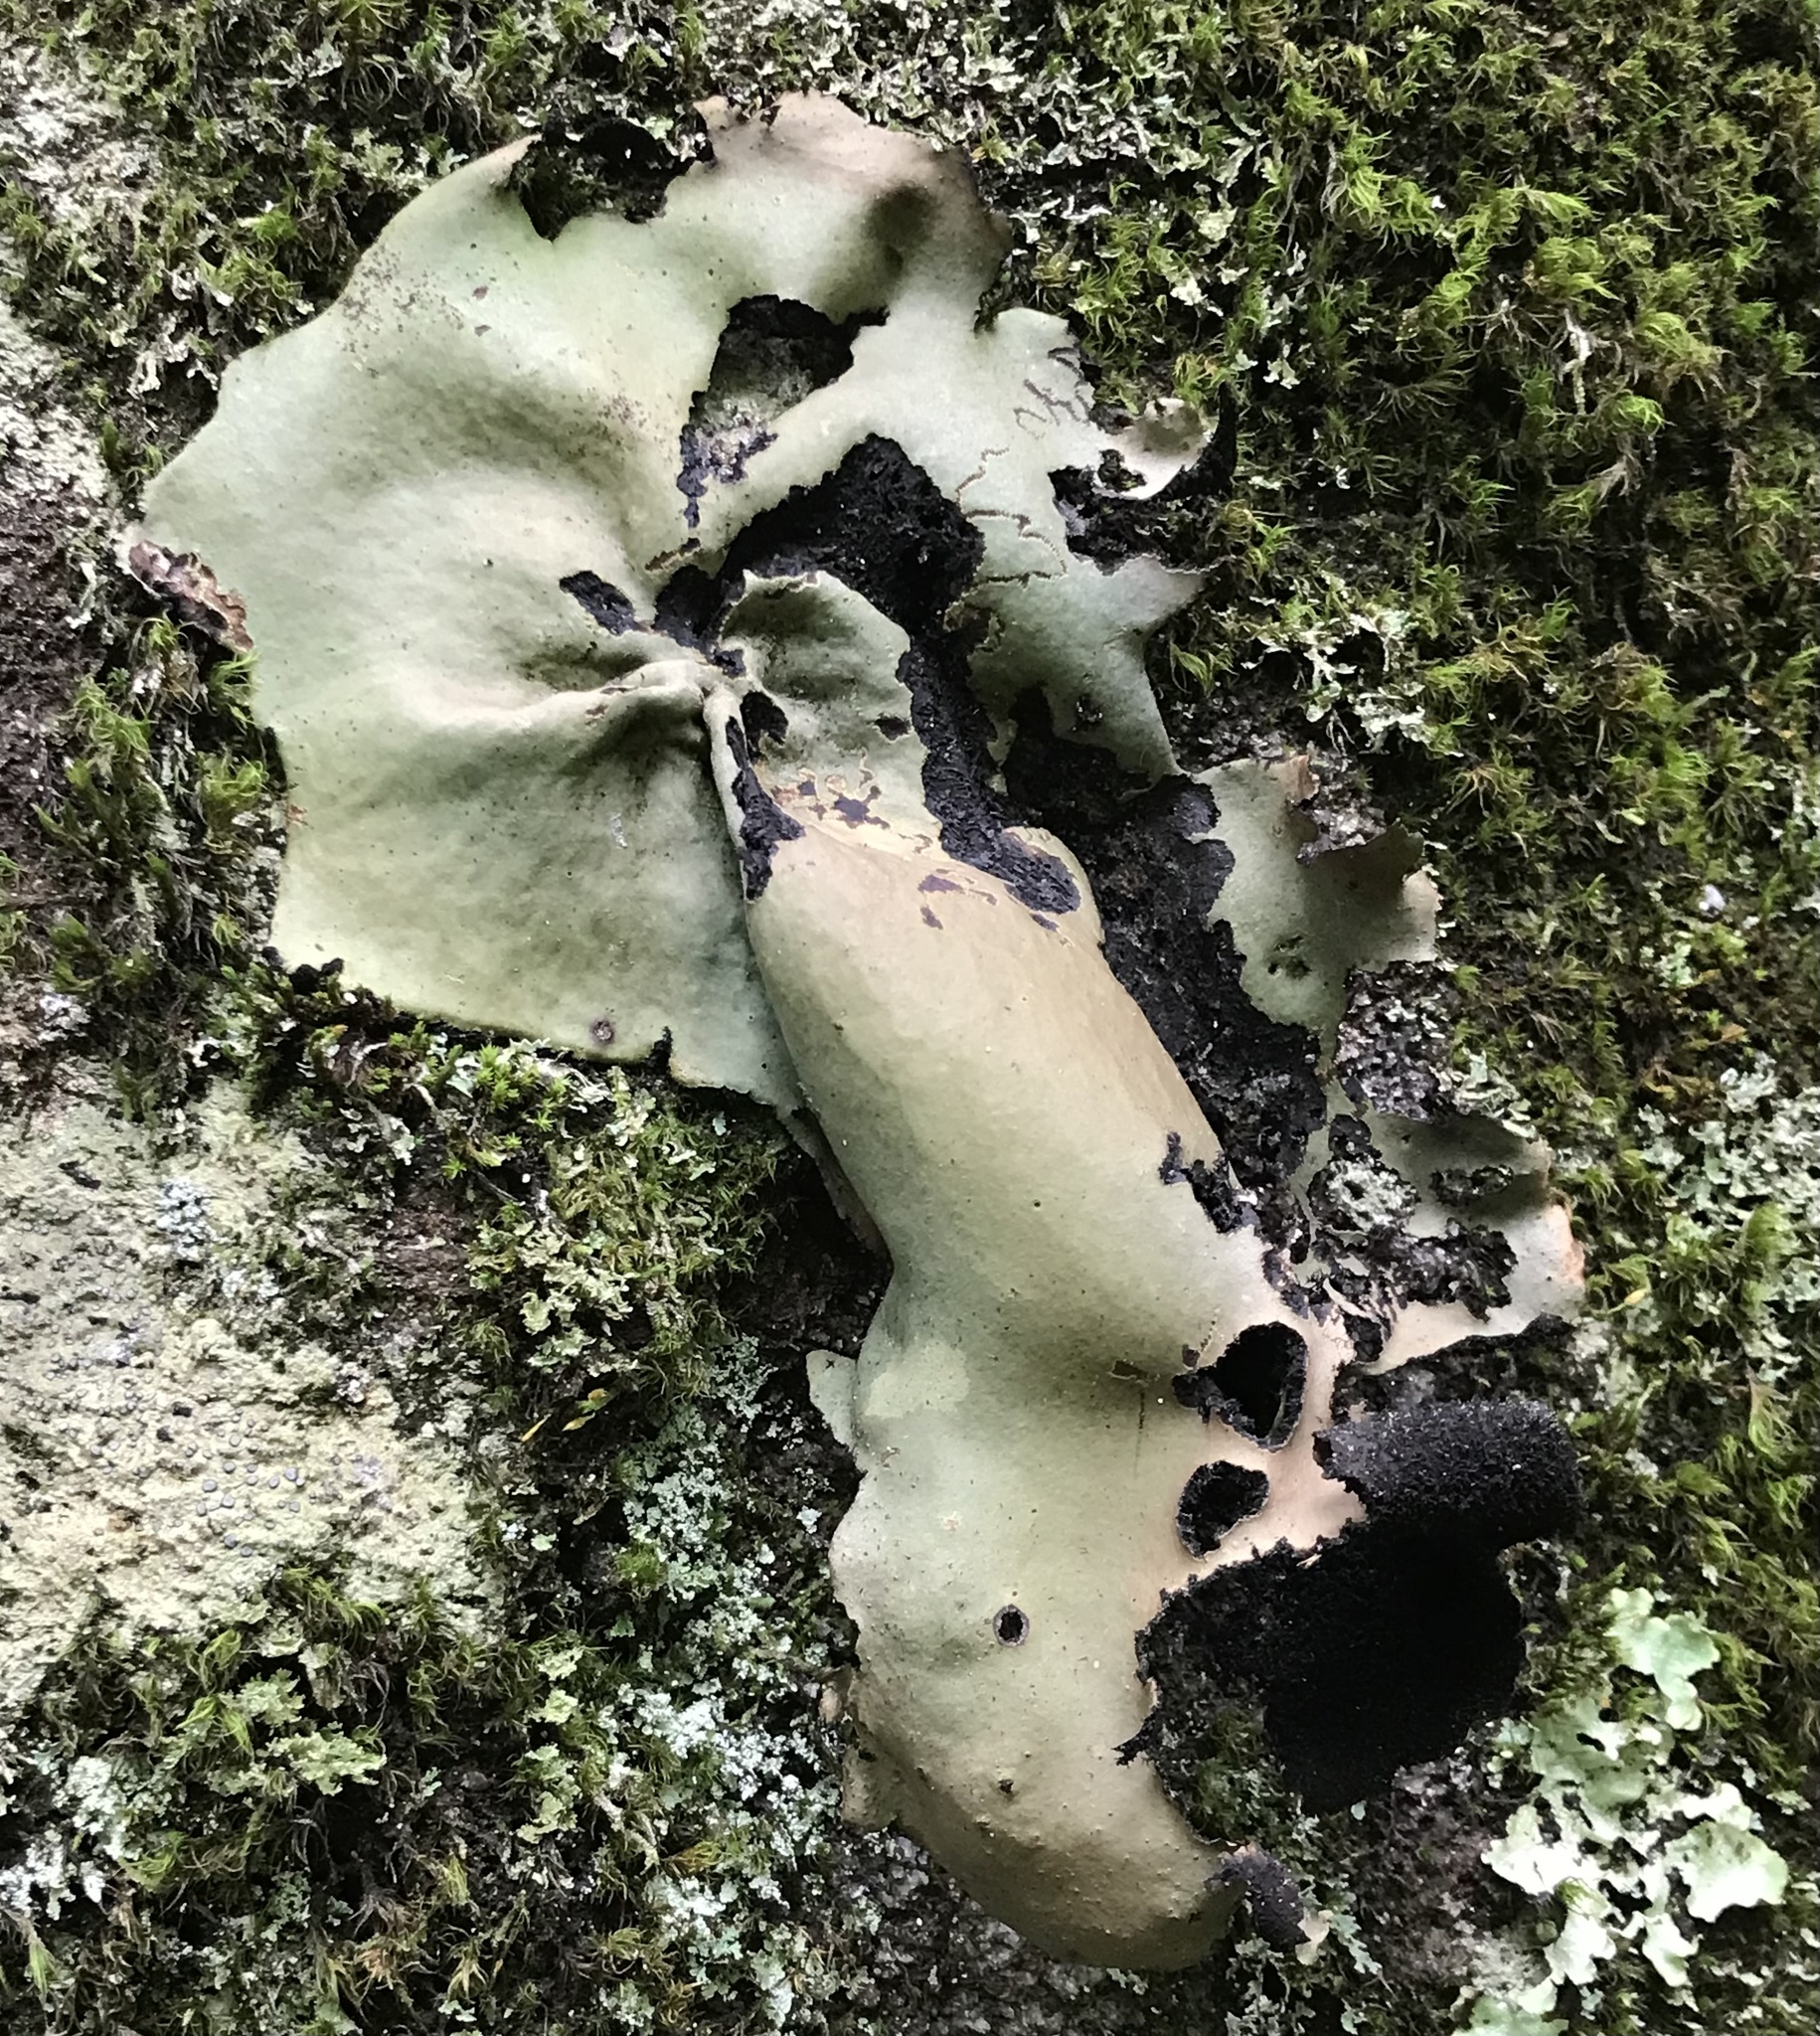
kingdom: Fungi
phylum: Ascomycota
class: Lecanoromycetes
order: Umbilicariales
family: Umbilicariaceae
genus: Umbilicaria
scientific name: Umbilicaria mammulata
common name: Smooth rock tripe
